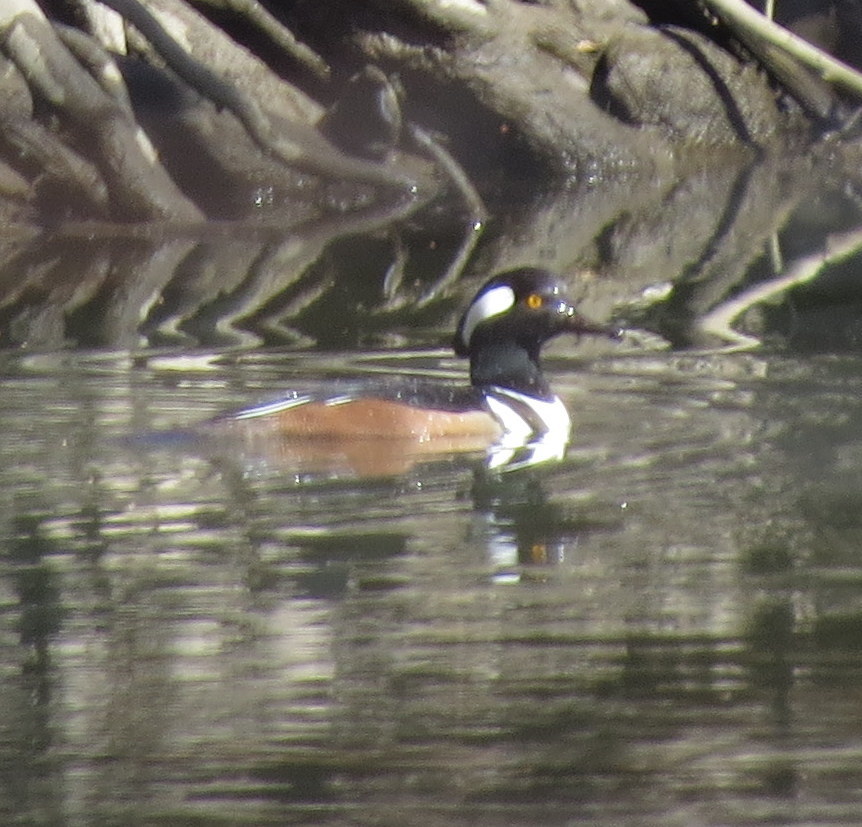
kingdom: Animalia
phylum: Chordata
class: Aves
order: Anseriformes
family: Anatidae
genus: Lophodytes
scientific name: Lophodytes cucullatus
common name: Hooded merganser
